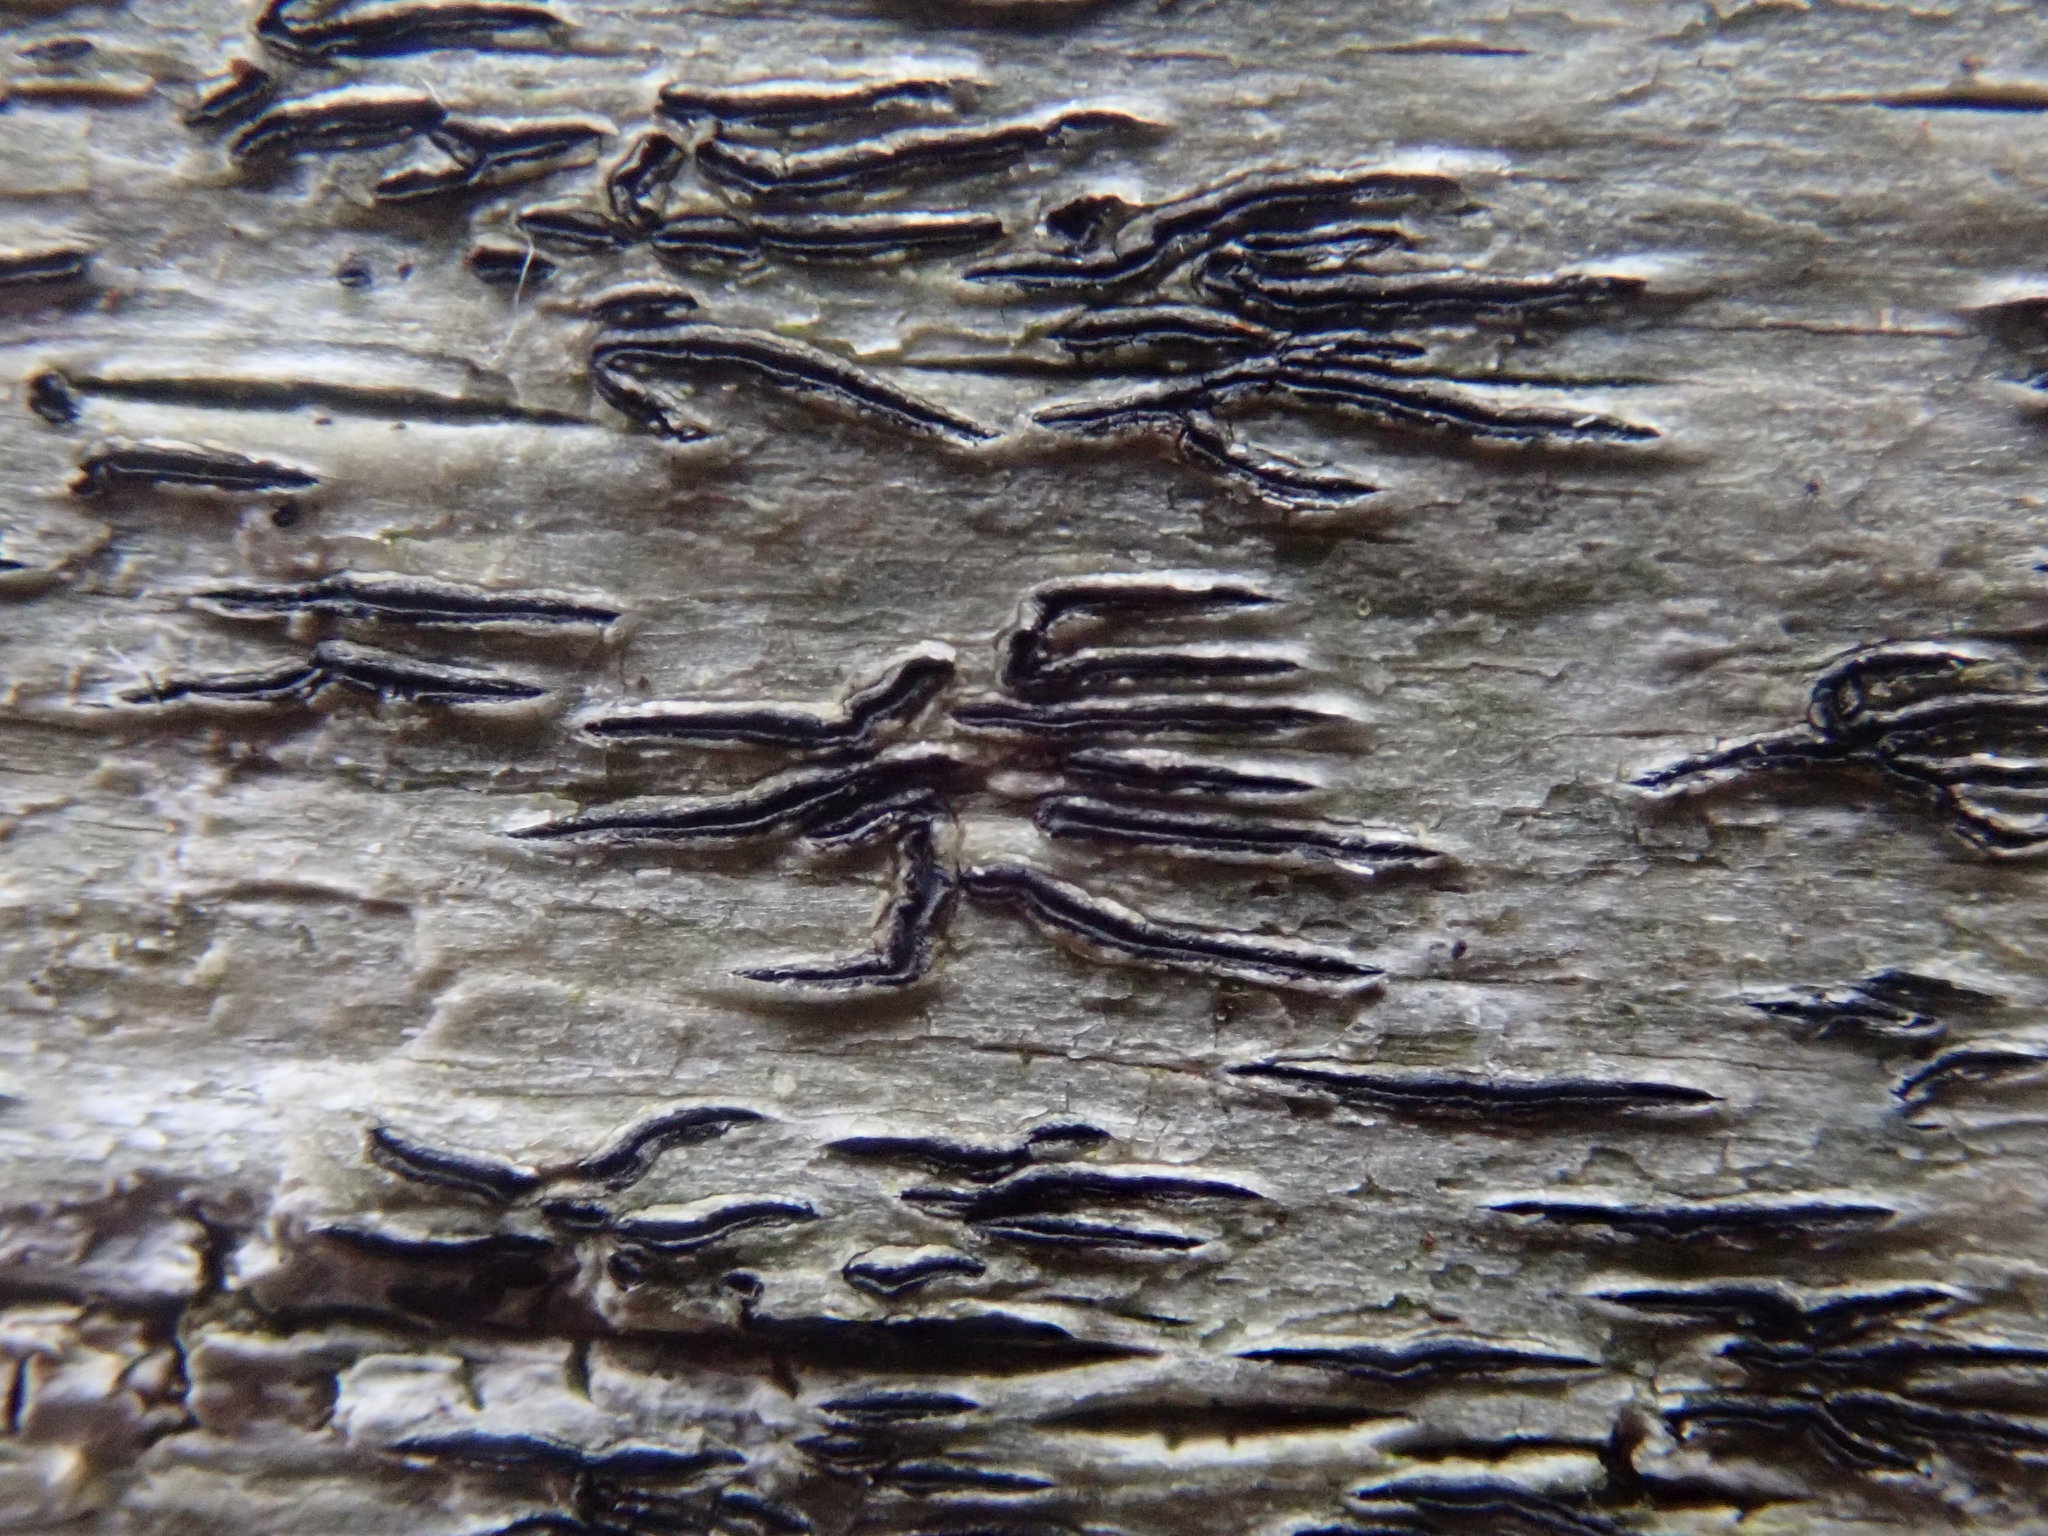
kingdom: Fungi
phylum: Ascomycota
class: Lecanoromycetes
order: Ostropales
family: Graphidaceae
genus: Graphis
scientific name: Graphis scripta
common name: Script lichen
